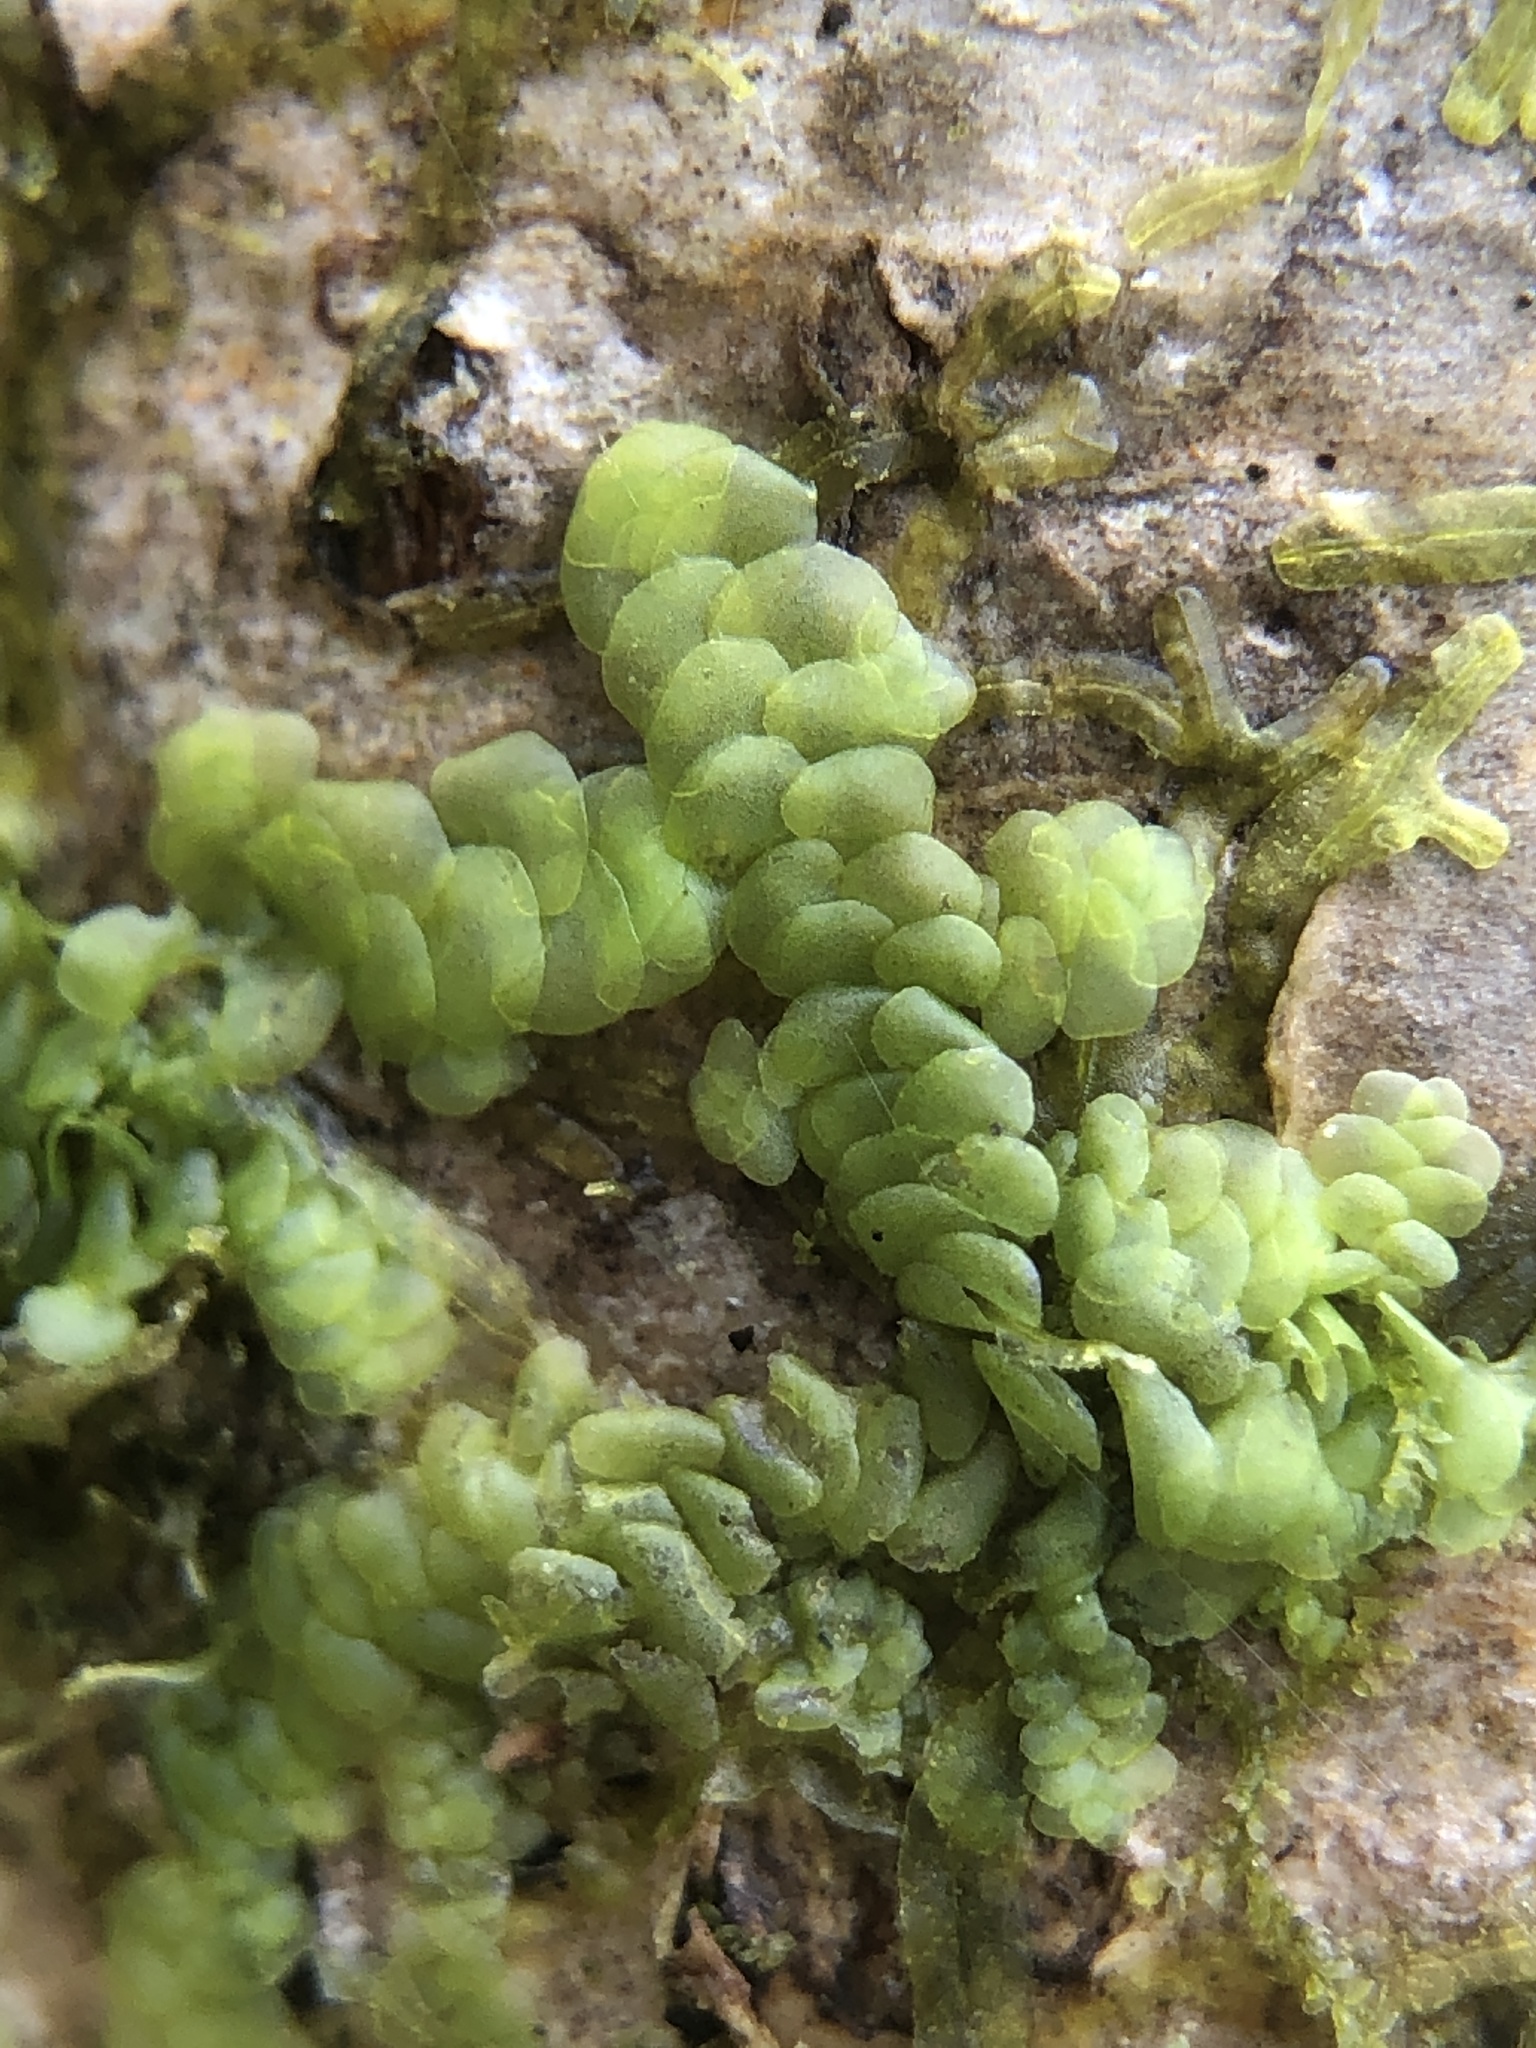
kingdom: Plantae
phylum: Marchantiophyta
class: Jungermanniopsida
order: Porellales
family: Radulaceae
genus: Radula
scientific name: Radula complanata
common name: Flat-leaved scalewort
